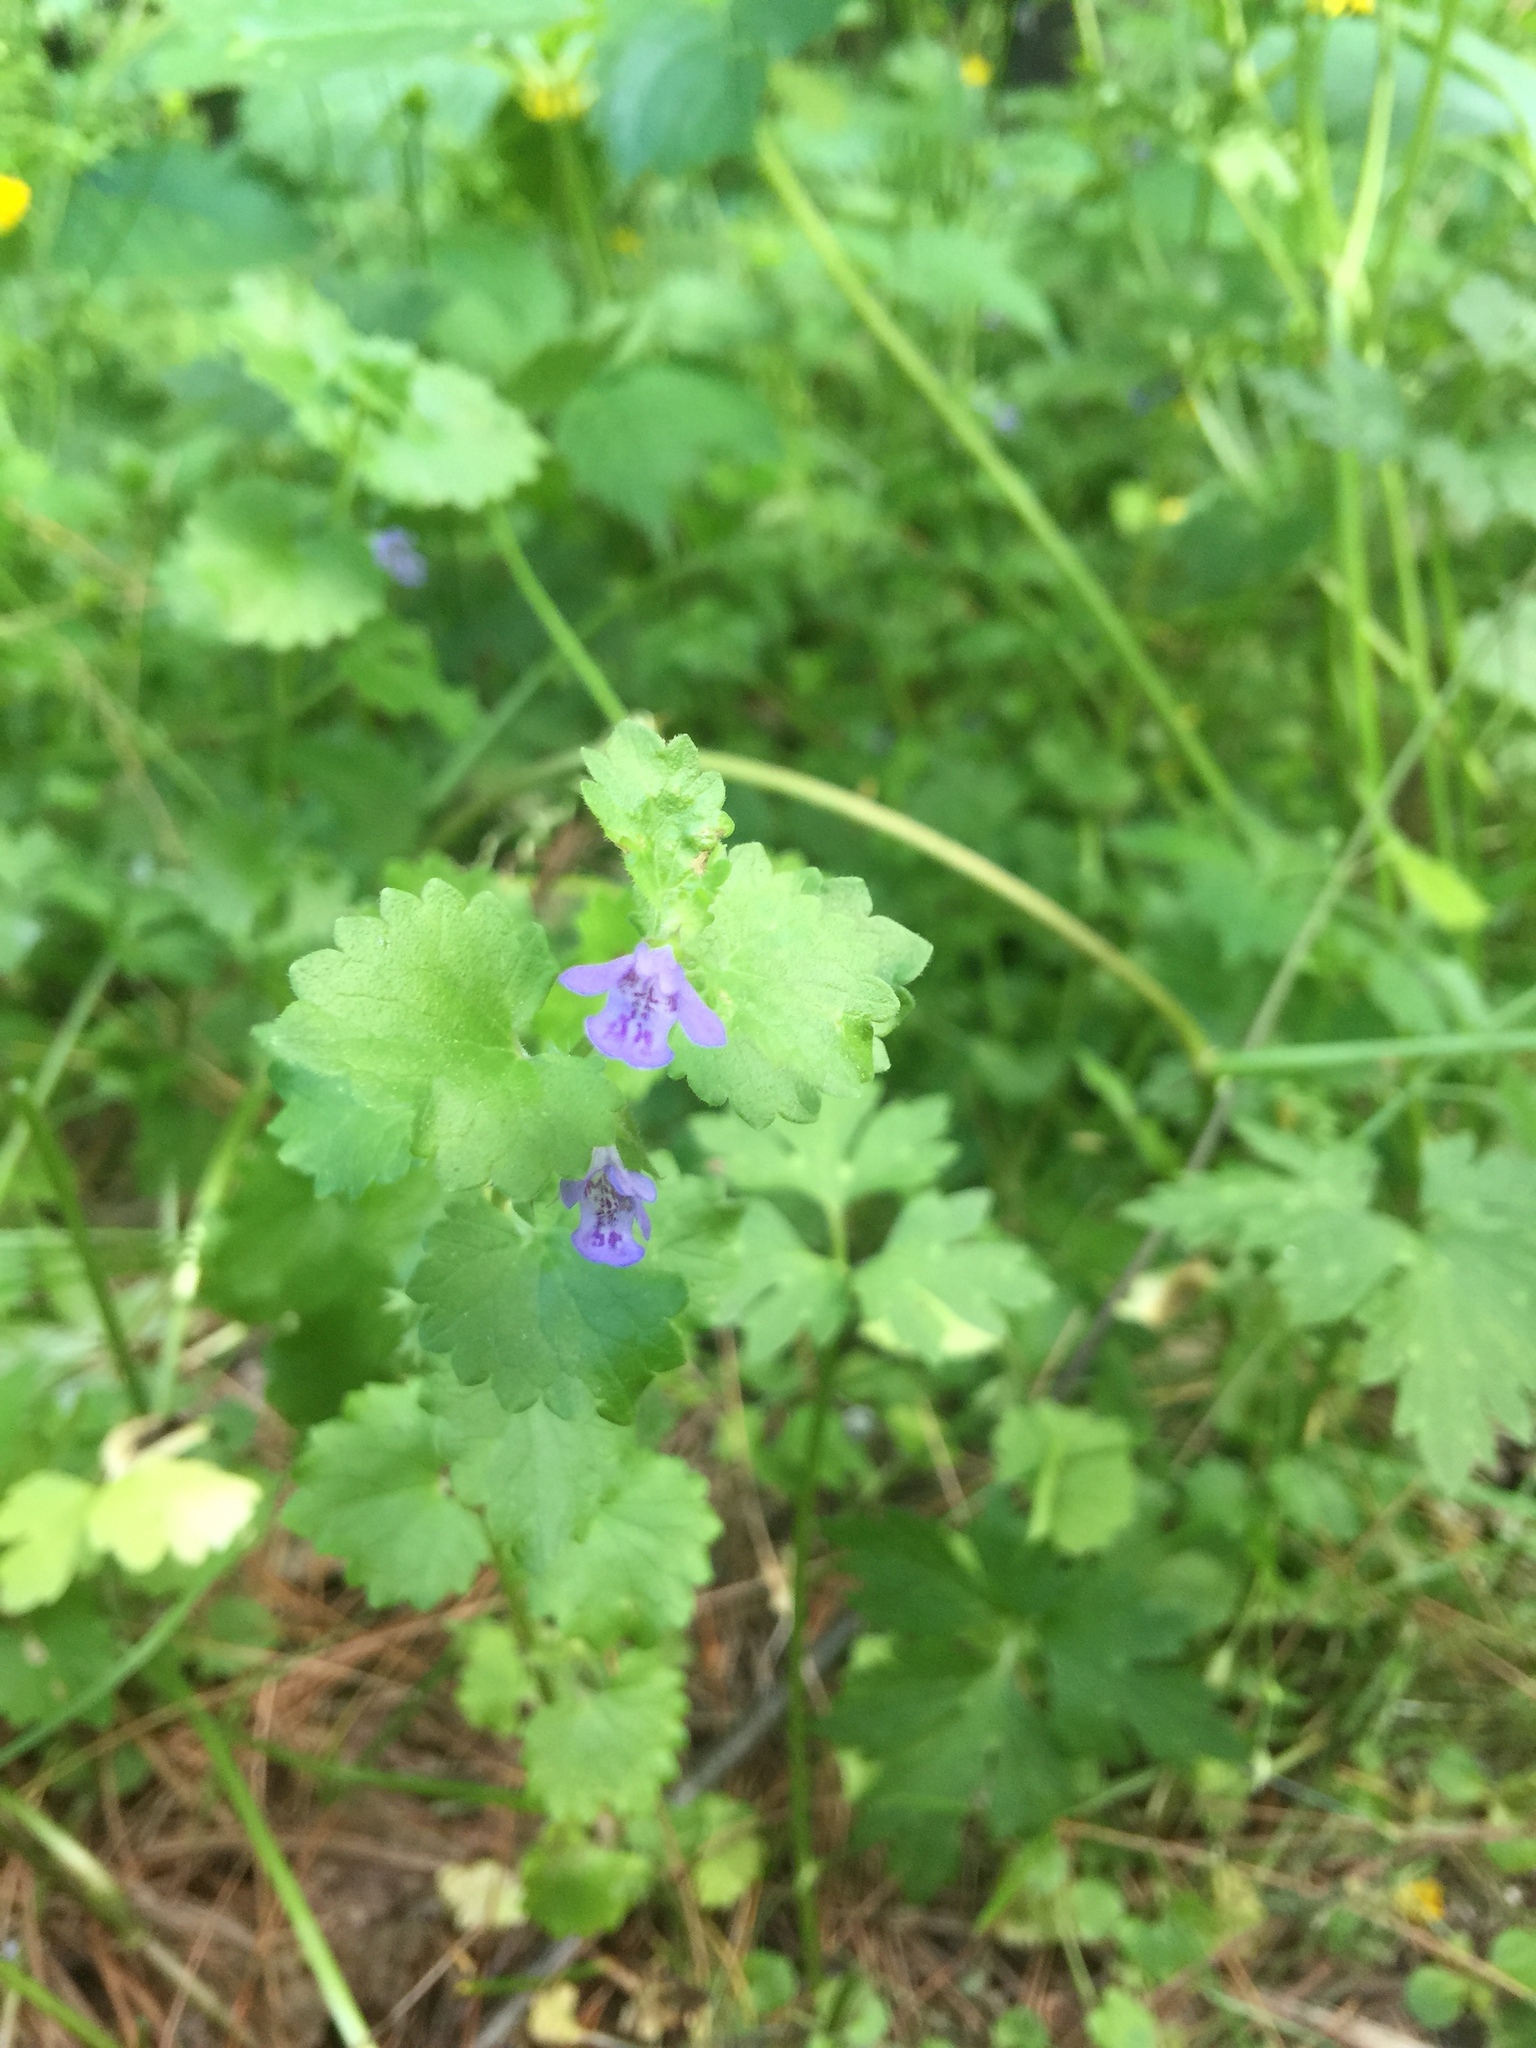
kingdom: Plantae
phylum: Tracheophyta
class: Magnoliopsida
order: Lamiales
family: Lamiaceae
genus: Glechoma
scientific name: Glechoma hederacea
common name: Ground ivy
